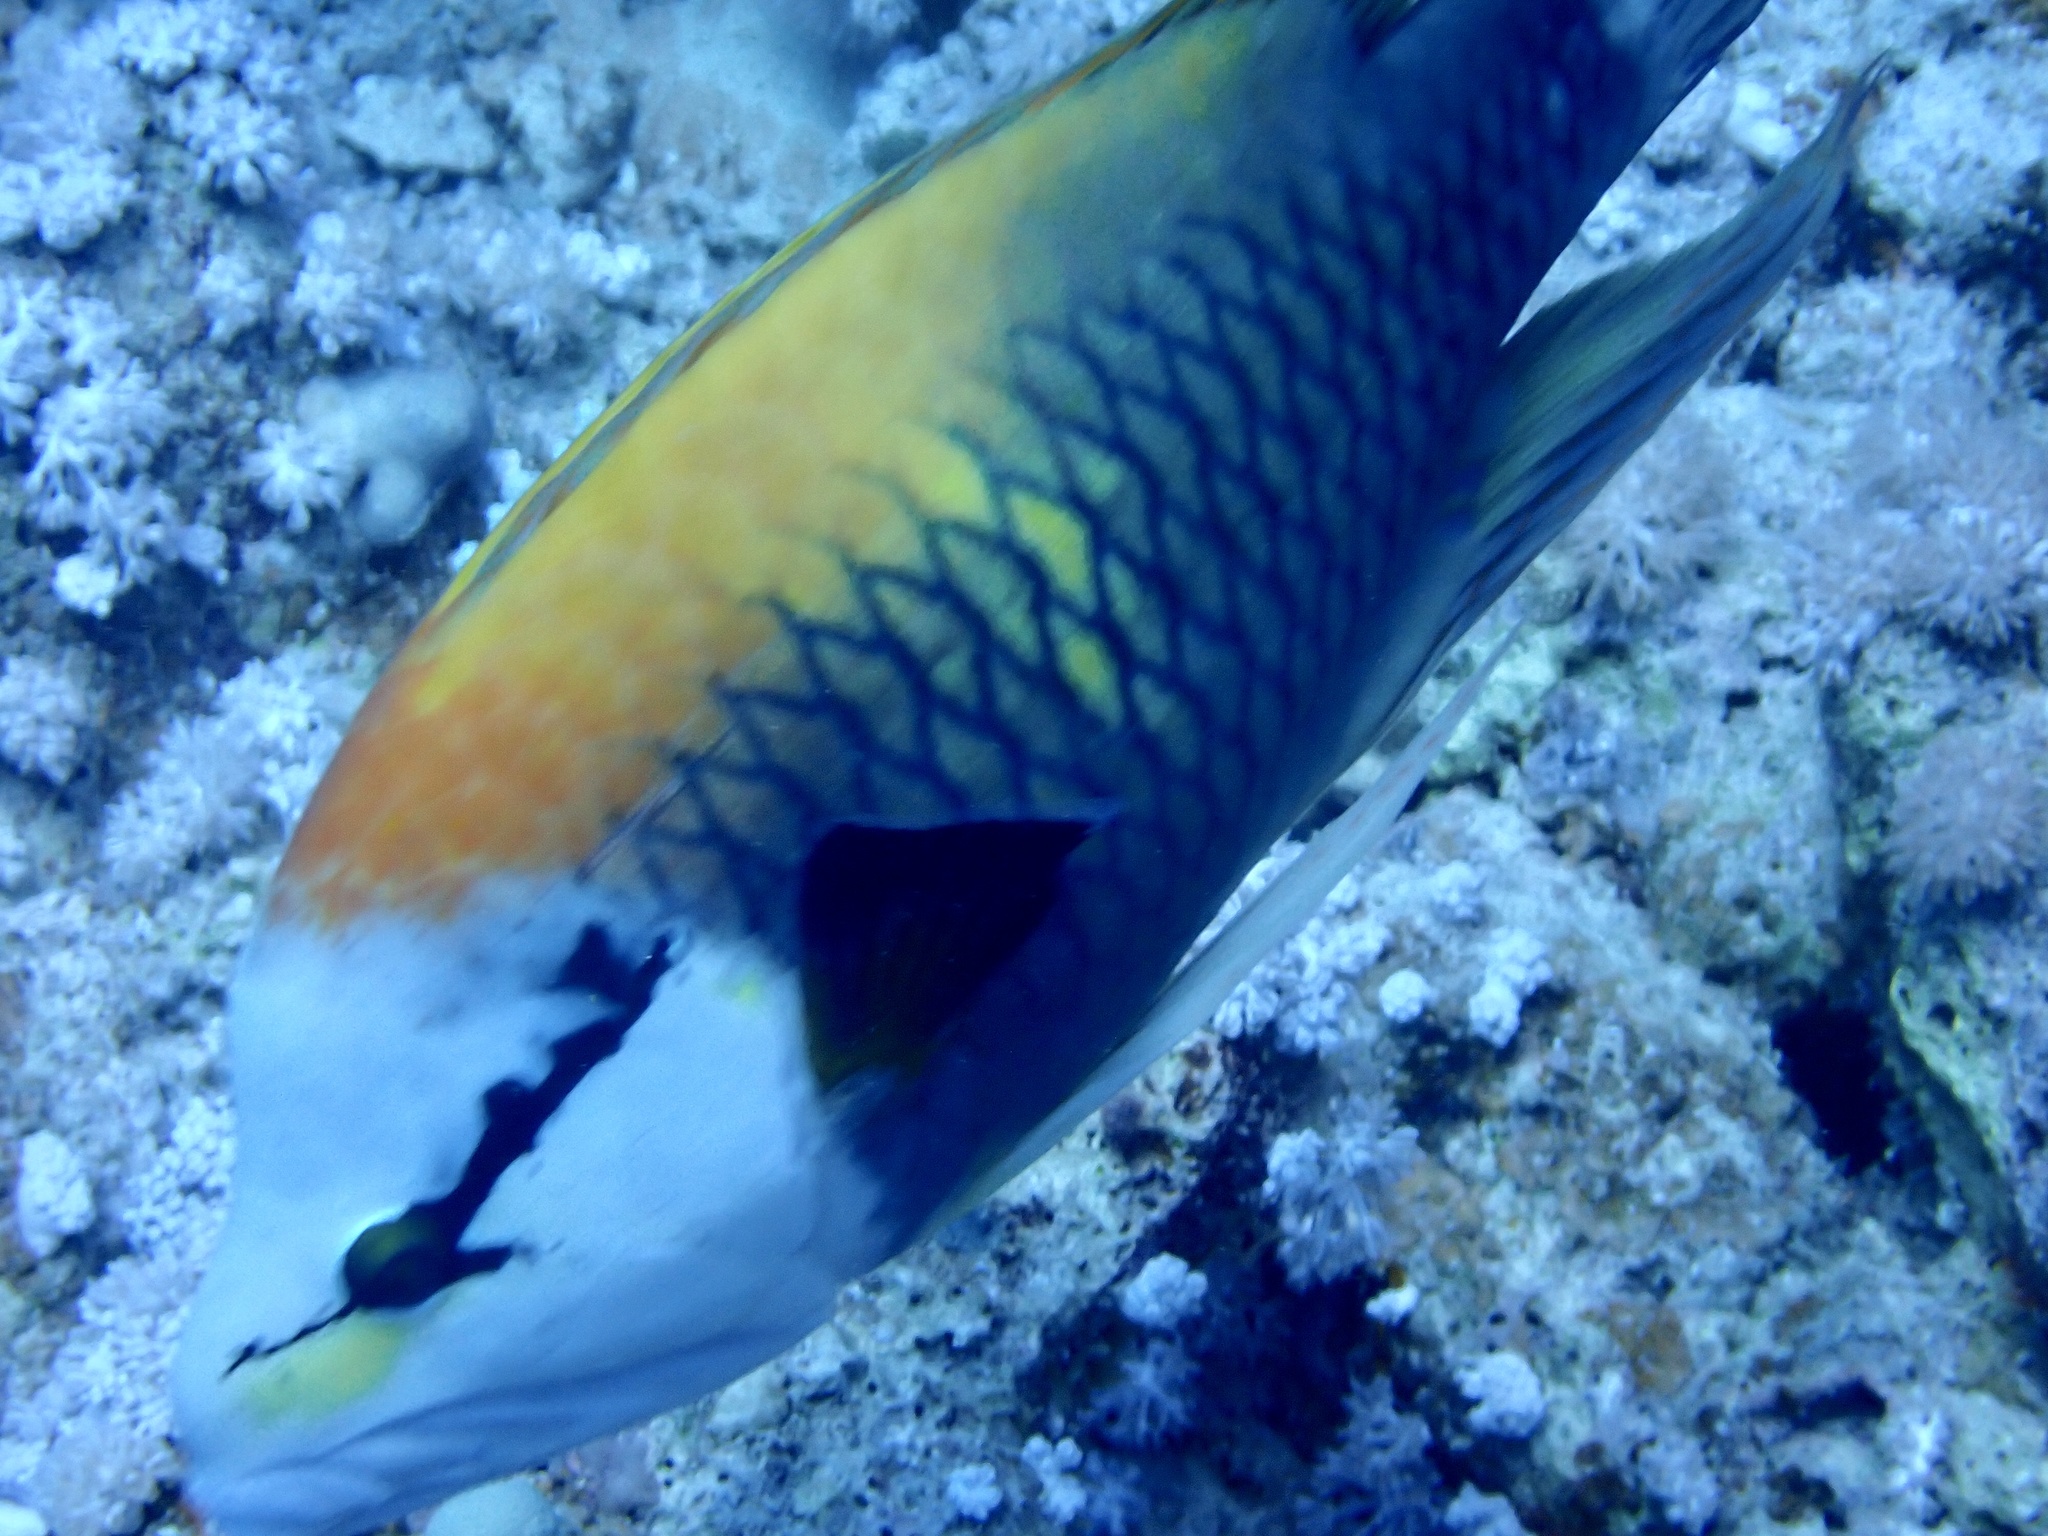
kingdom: Animalia
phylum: Chordata
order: Perciformes
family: Labridae
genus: Epibulus
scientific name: Epibulus insidiator
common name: Slingjaw wrasse
